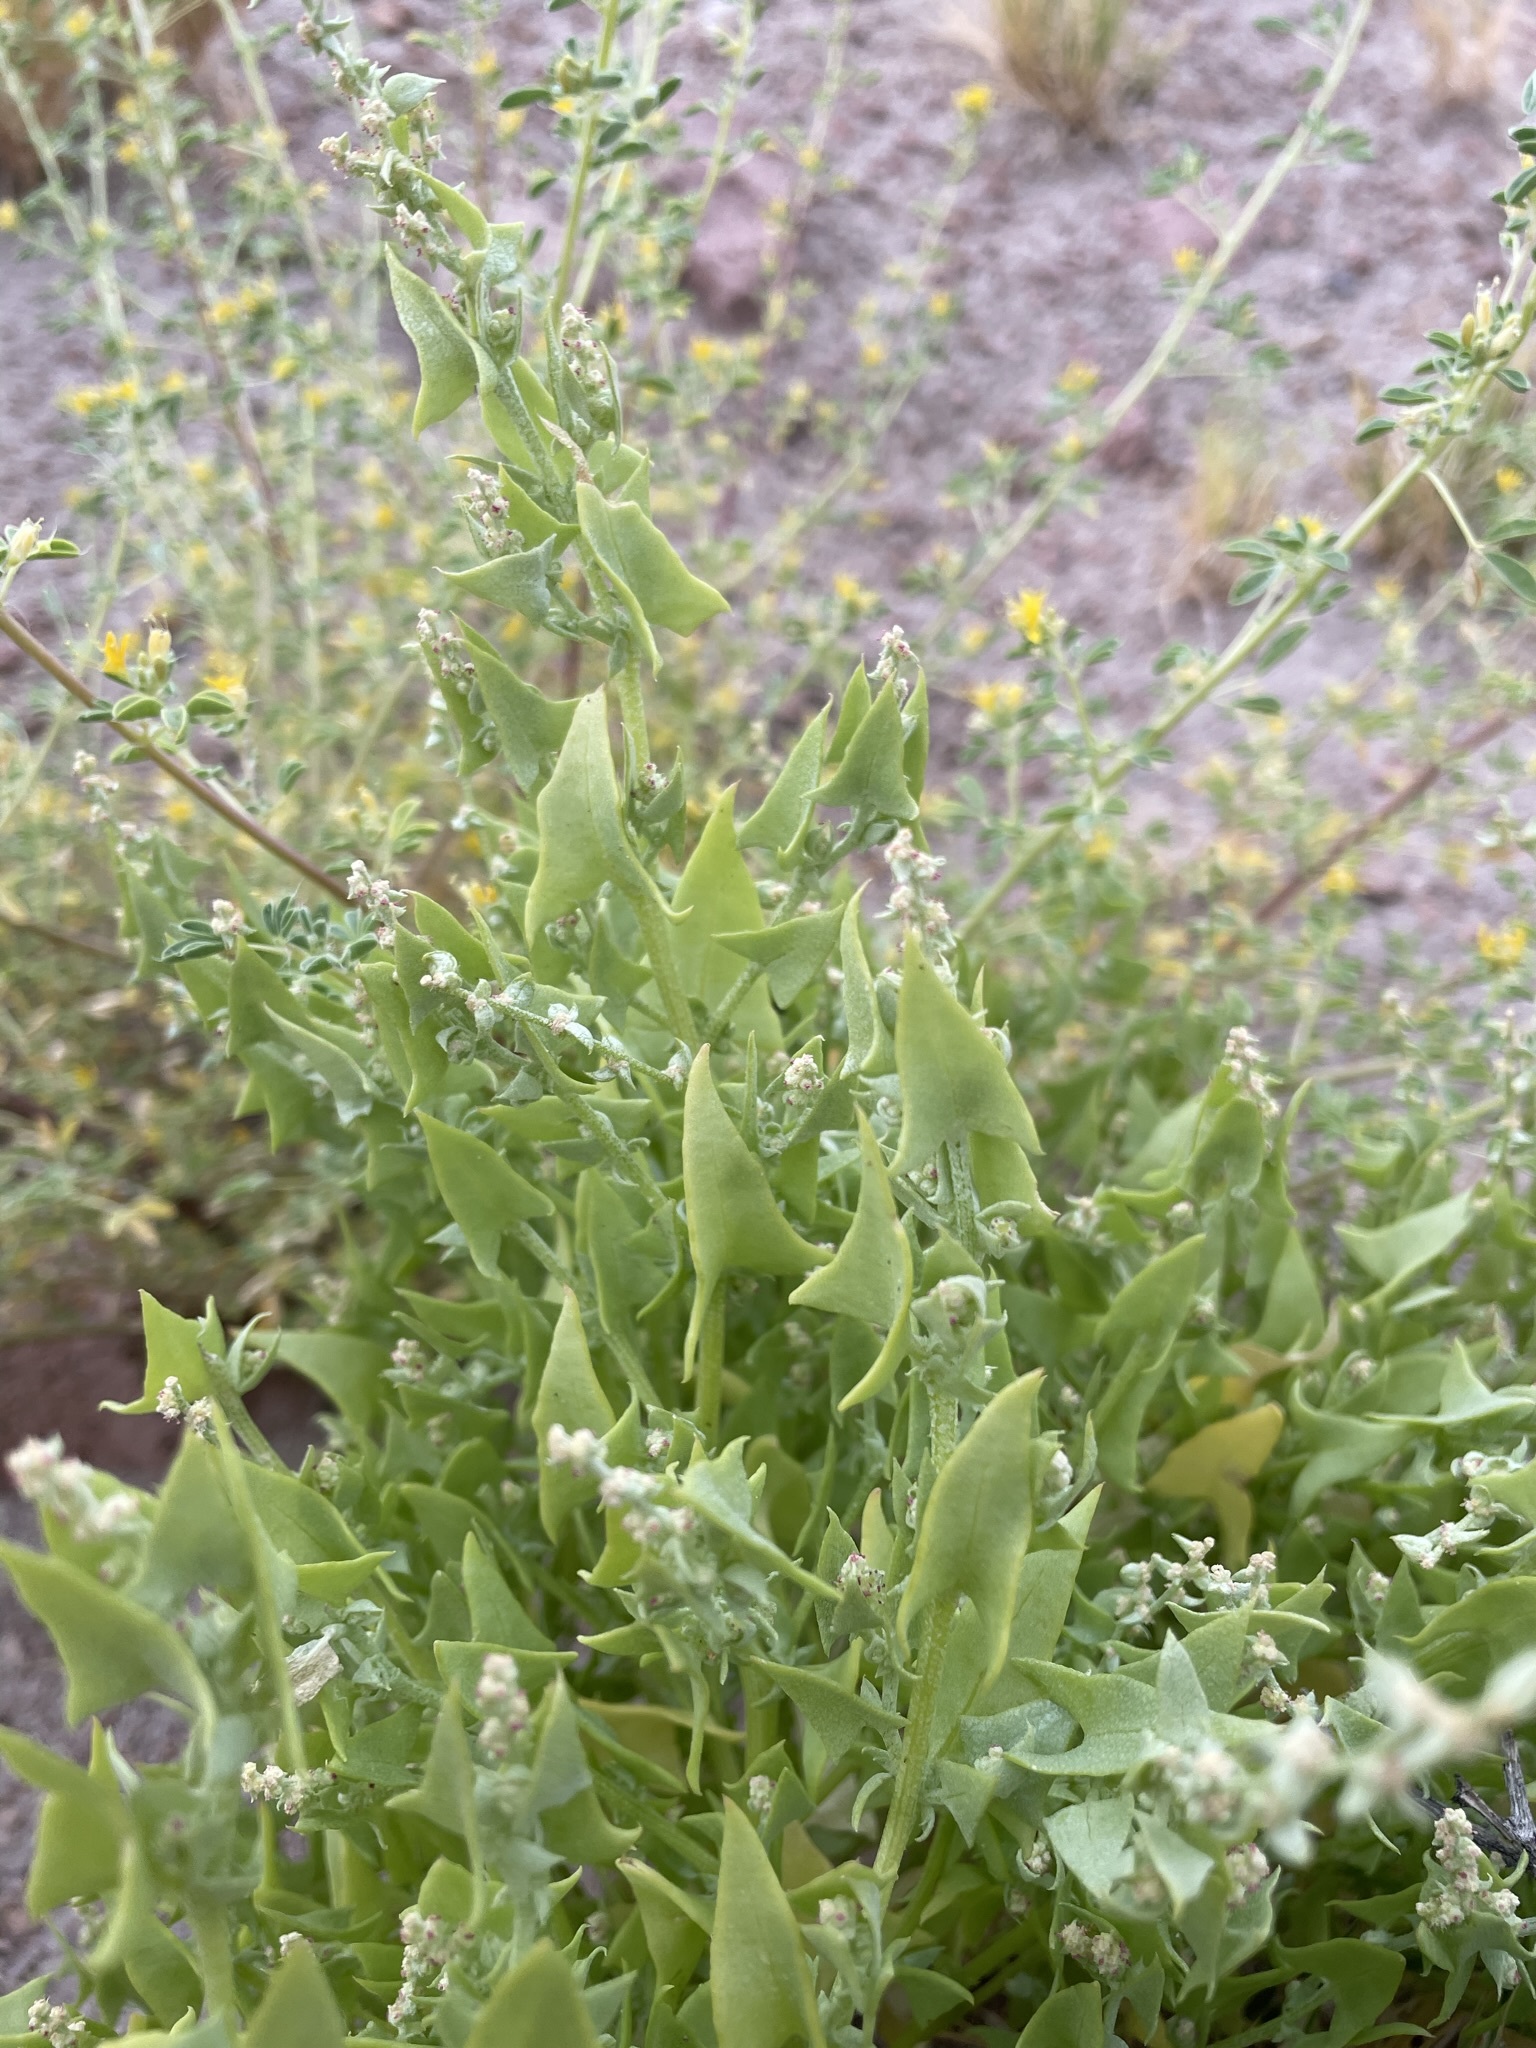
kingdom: Plantae
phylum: Tracheophyta
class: Magnoliopsida
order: Caryophyllales
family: Amaranthaceae
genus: Stutzia
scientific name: Stutzia covillei
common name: Coville's orach
